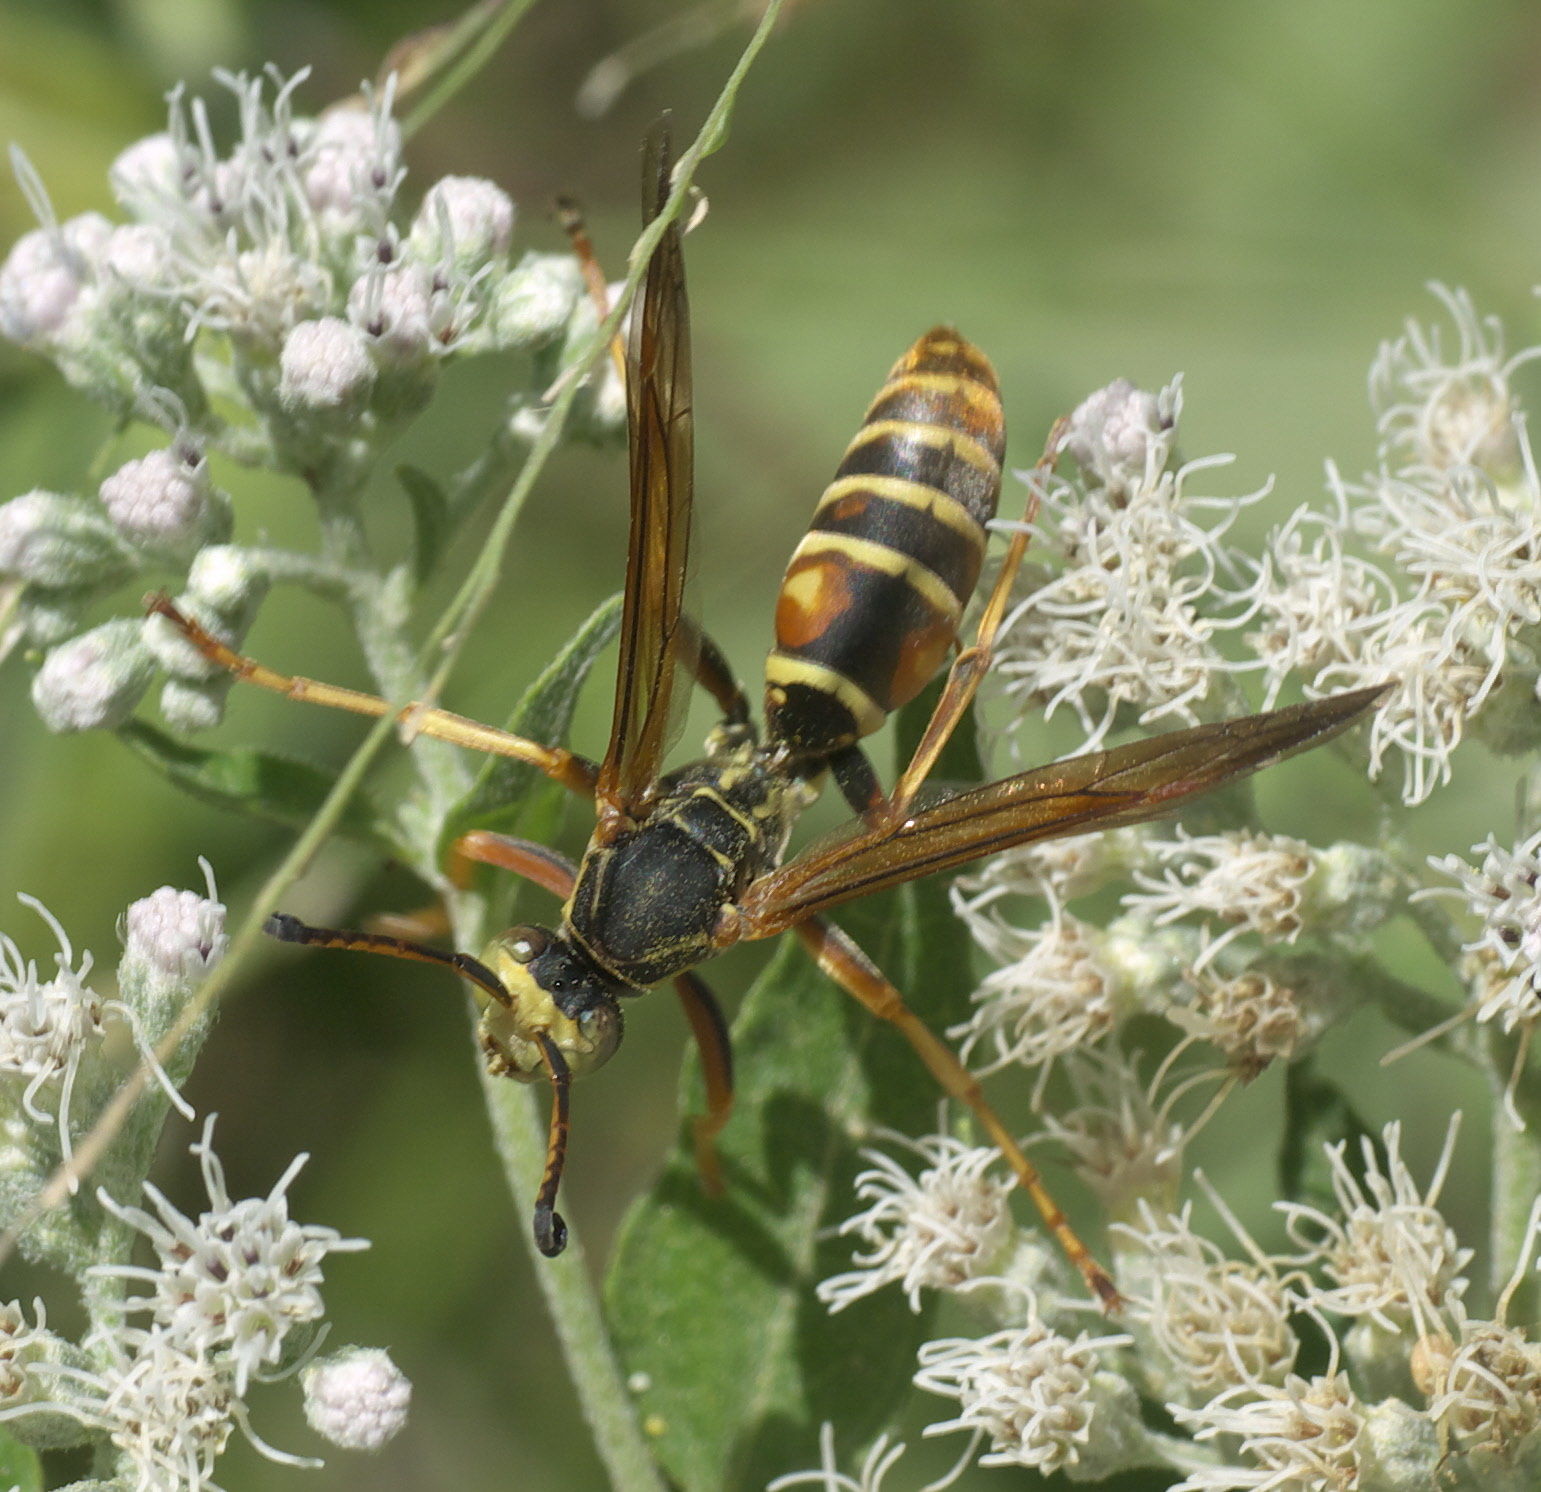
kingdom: Animalia
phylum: Arthropoda
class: Insecta
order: Hymenoptera
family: Eumenidae
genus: Polistes
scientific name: Polistes fuscatus
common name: Dark paper wasp
